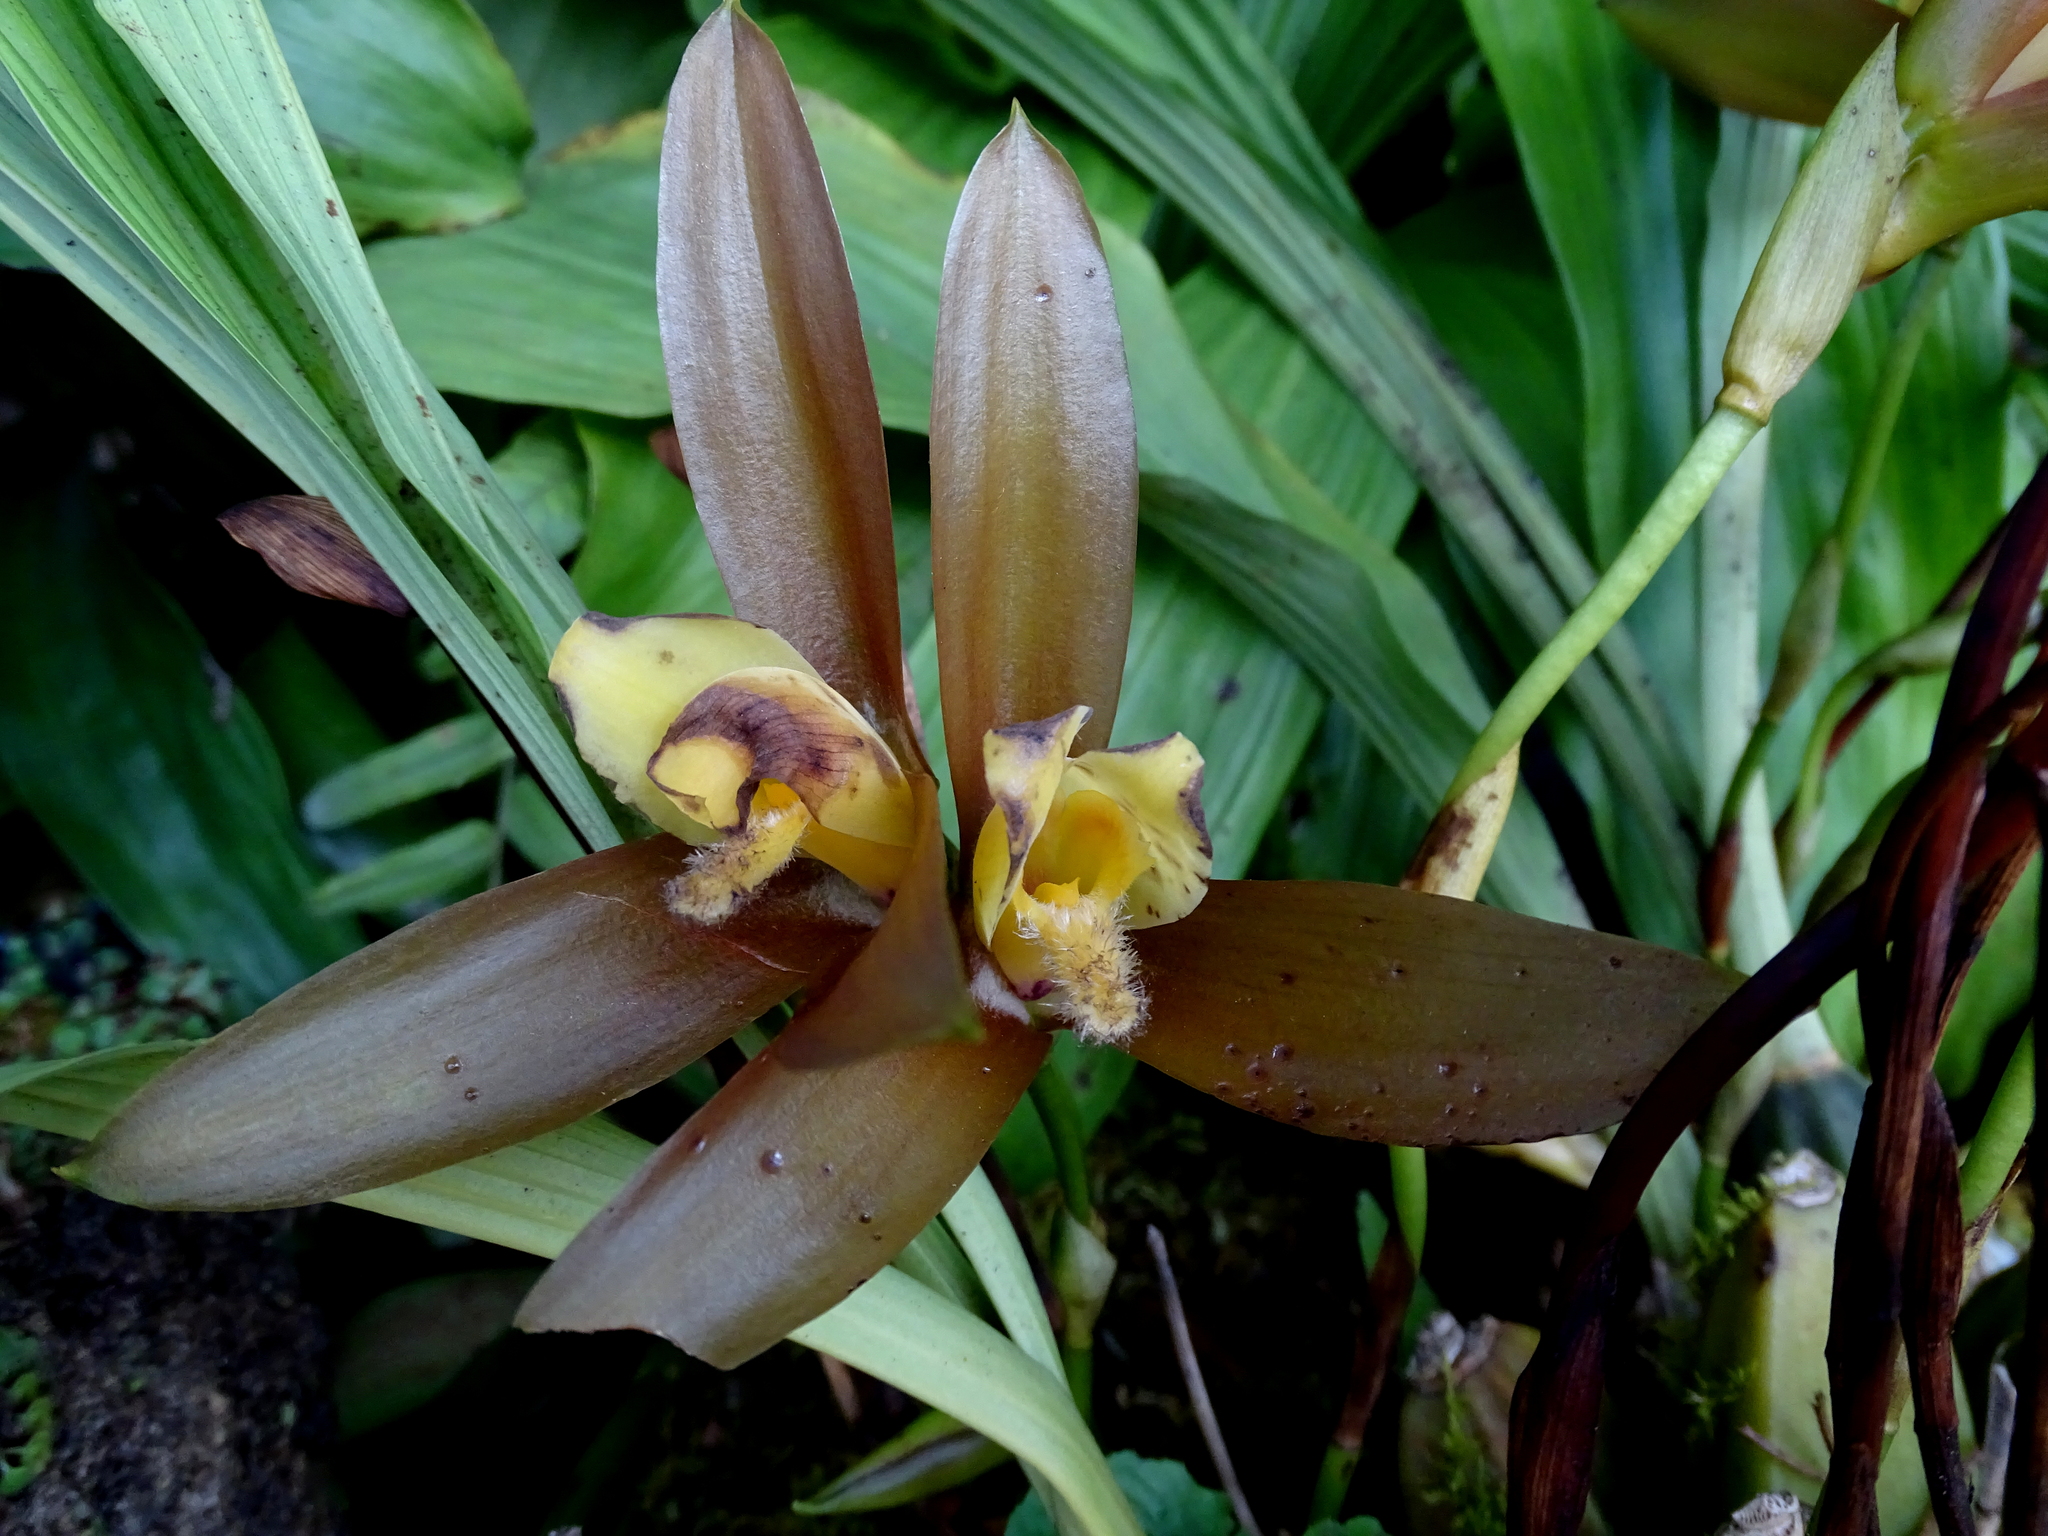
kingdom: Plantae
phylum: Tracheophyta
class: Liliopsida
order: Asparagales
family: Orchidaceae
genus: Lycaste
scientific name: Lycaste lasioglossa
